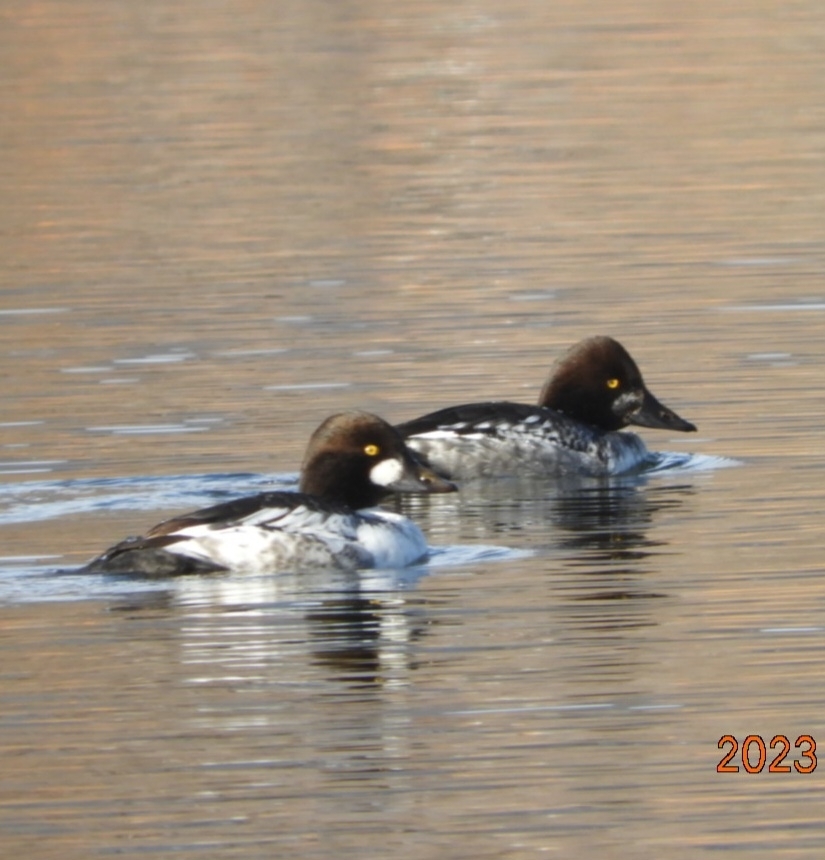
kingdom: Animalia
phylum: Chordata
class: Aves
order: Anseriformes
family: Anatidae
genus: Bucephala
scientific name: Bucephala clangula
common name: Common goldeneye
